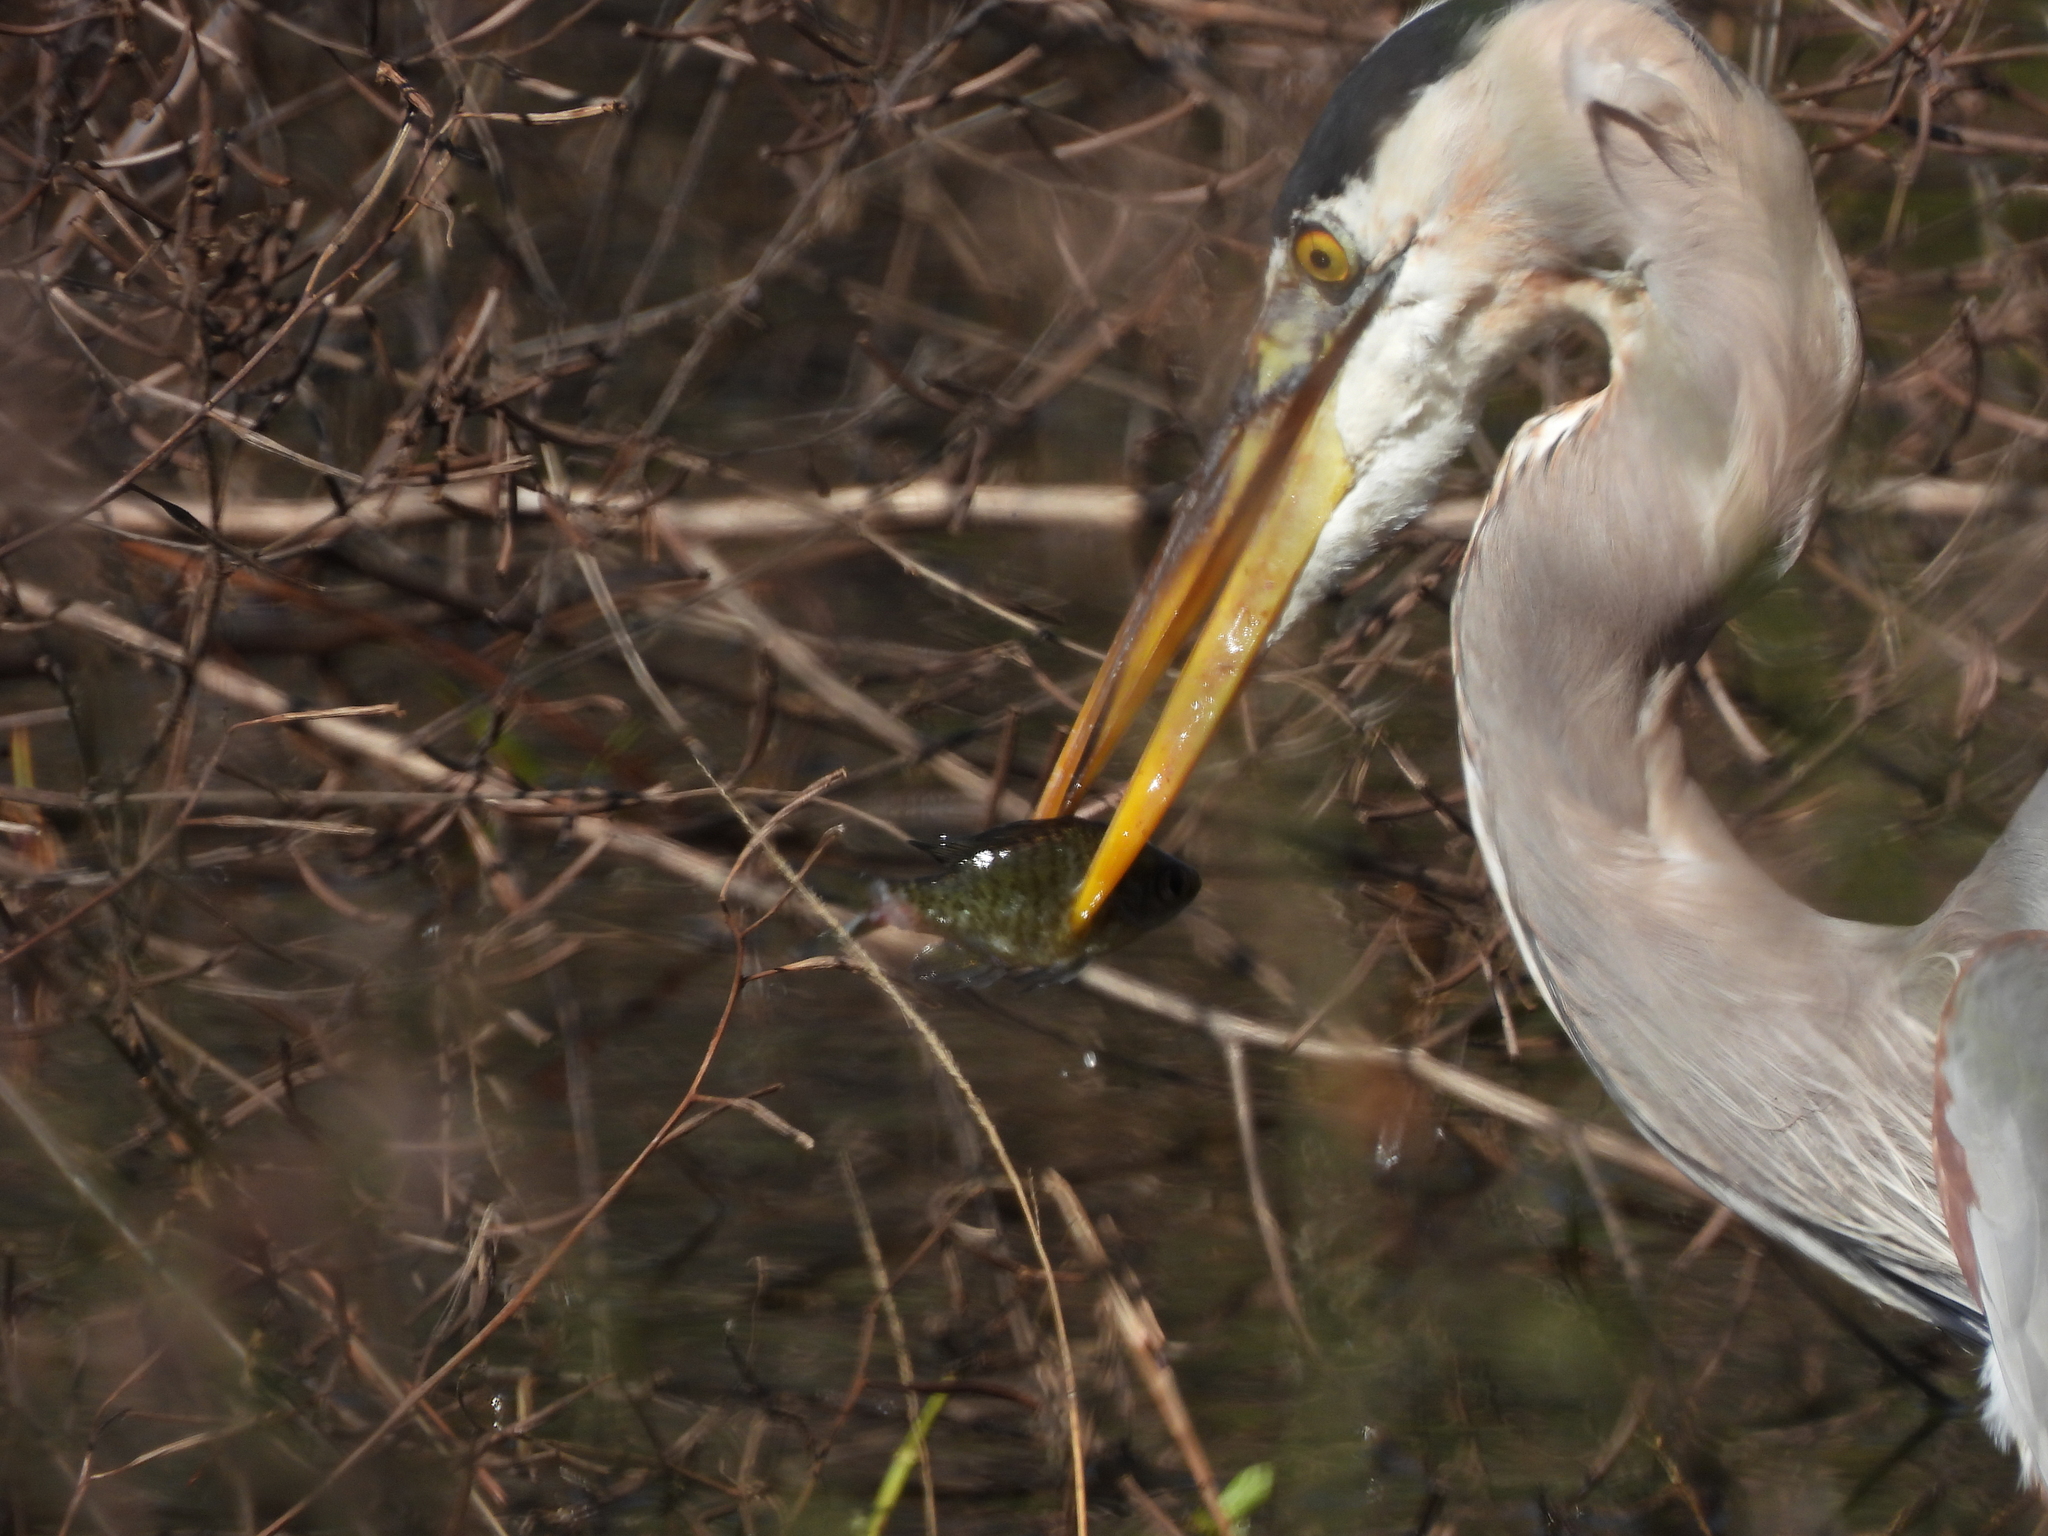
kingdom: Animalia
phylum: Chordata
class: Aves
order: Pelecaniformes
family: Ardeidae
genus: Ardea
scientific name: Ardea herodias
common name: Great blue heron
